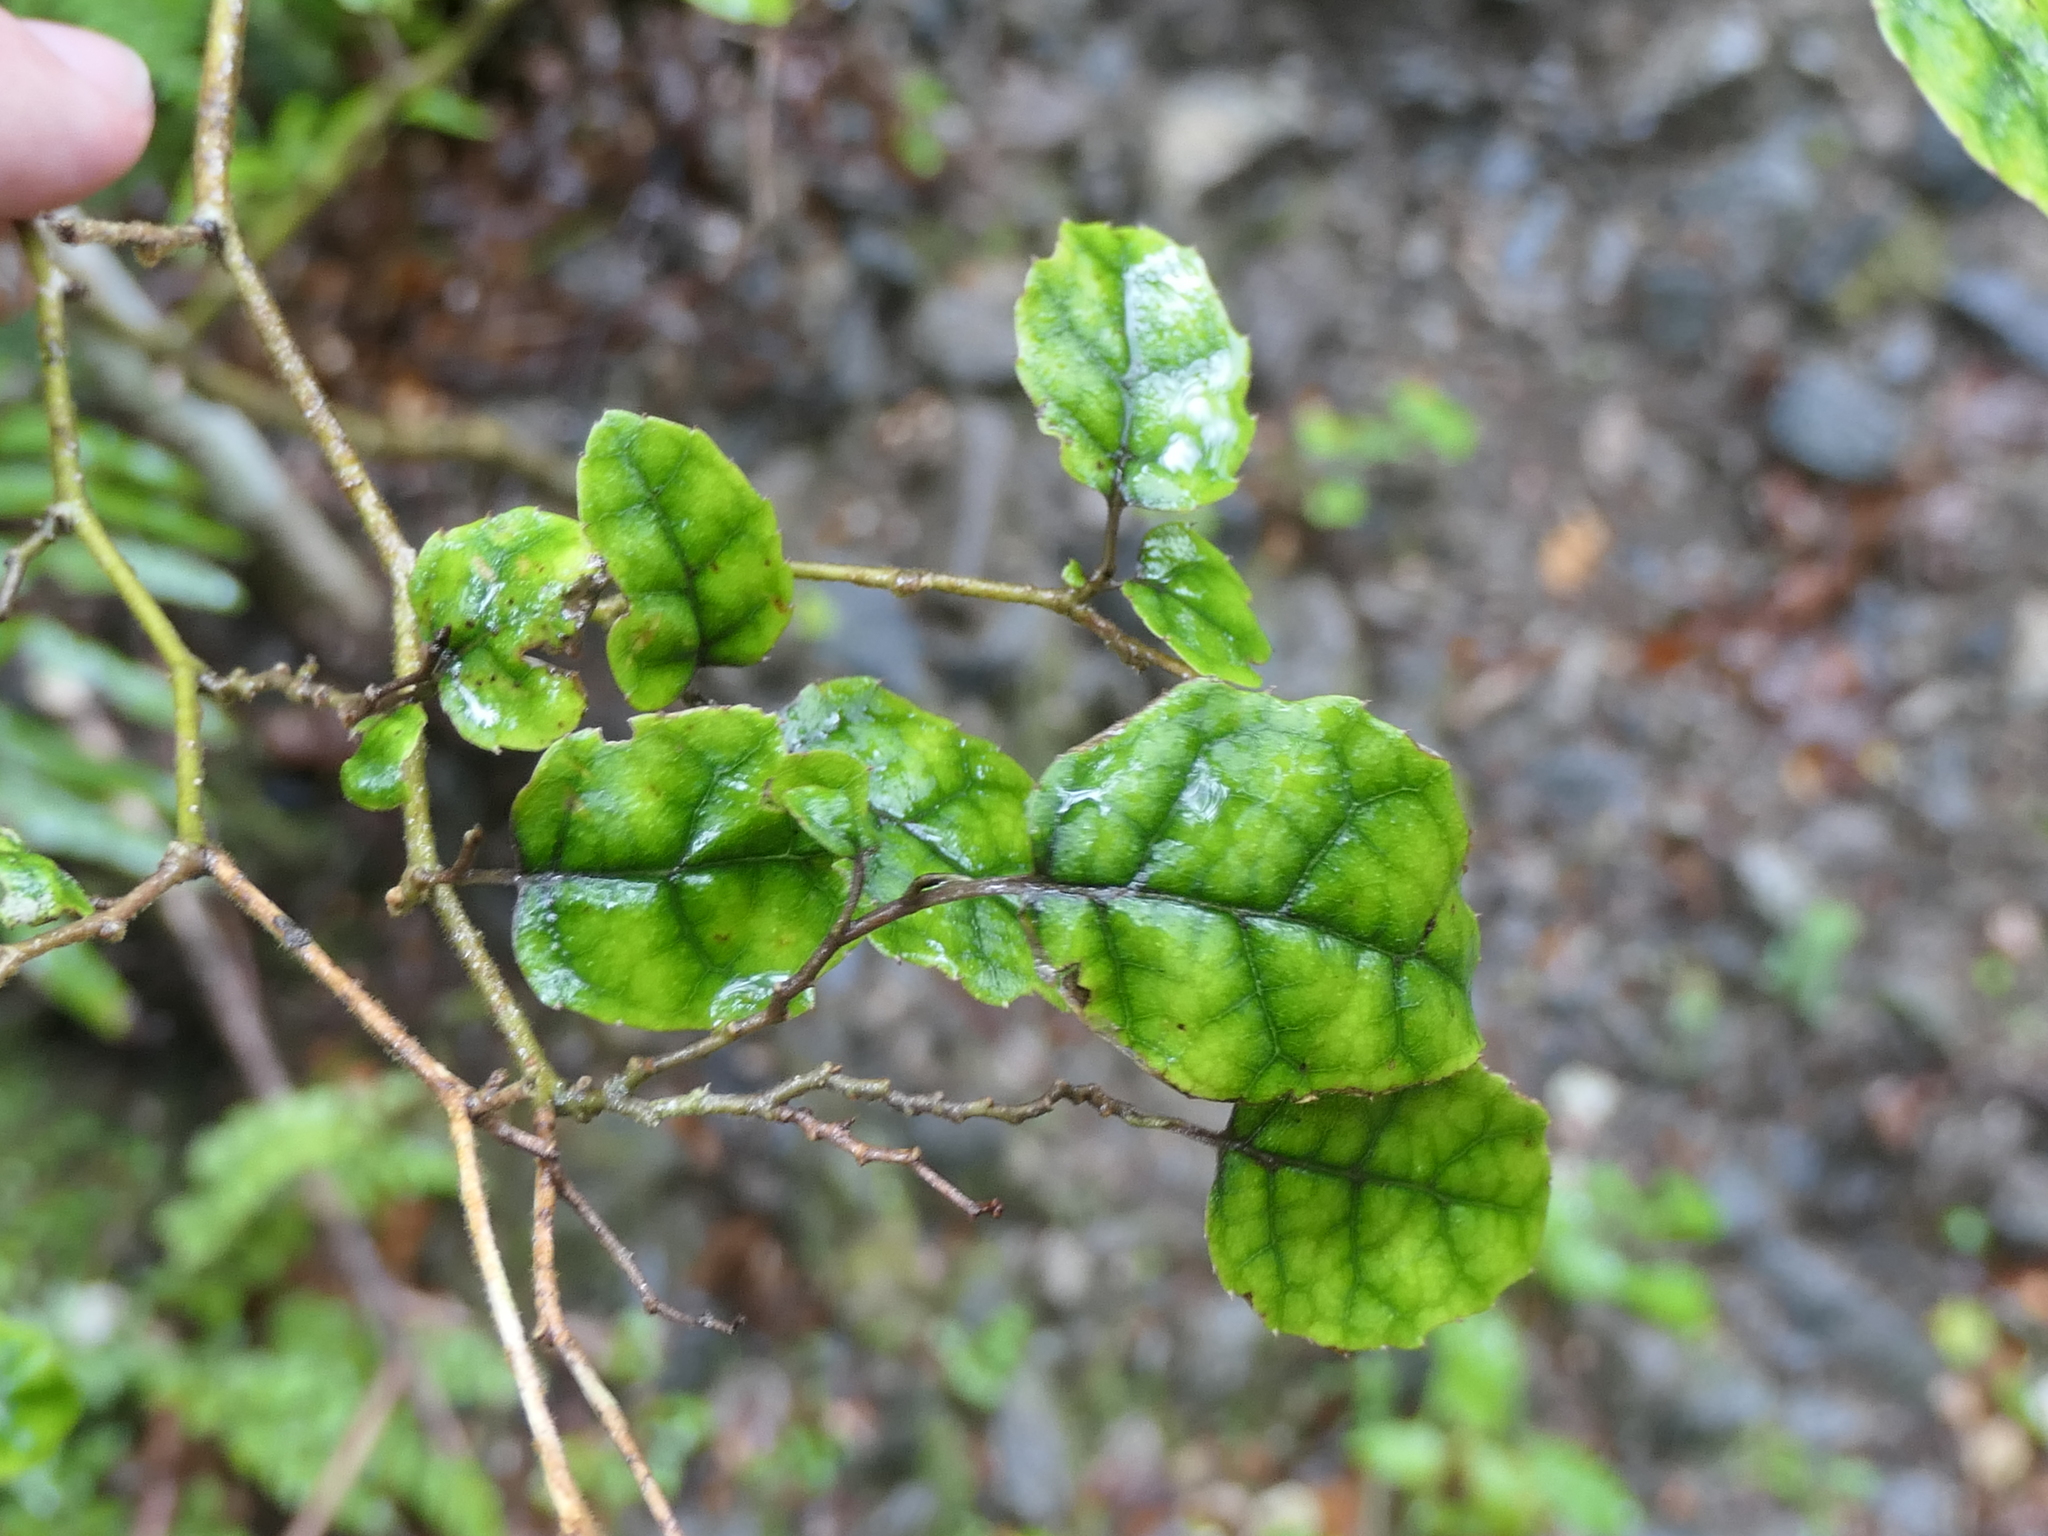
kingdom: Plantae
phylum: Tracheophyta
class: Magnoliopsida
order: Asterales
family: Rousseaceae
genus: Carpodetus
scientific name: Carpodetus serratus
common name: White mapau
